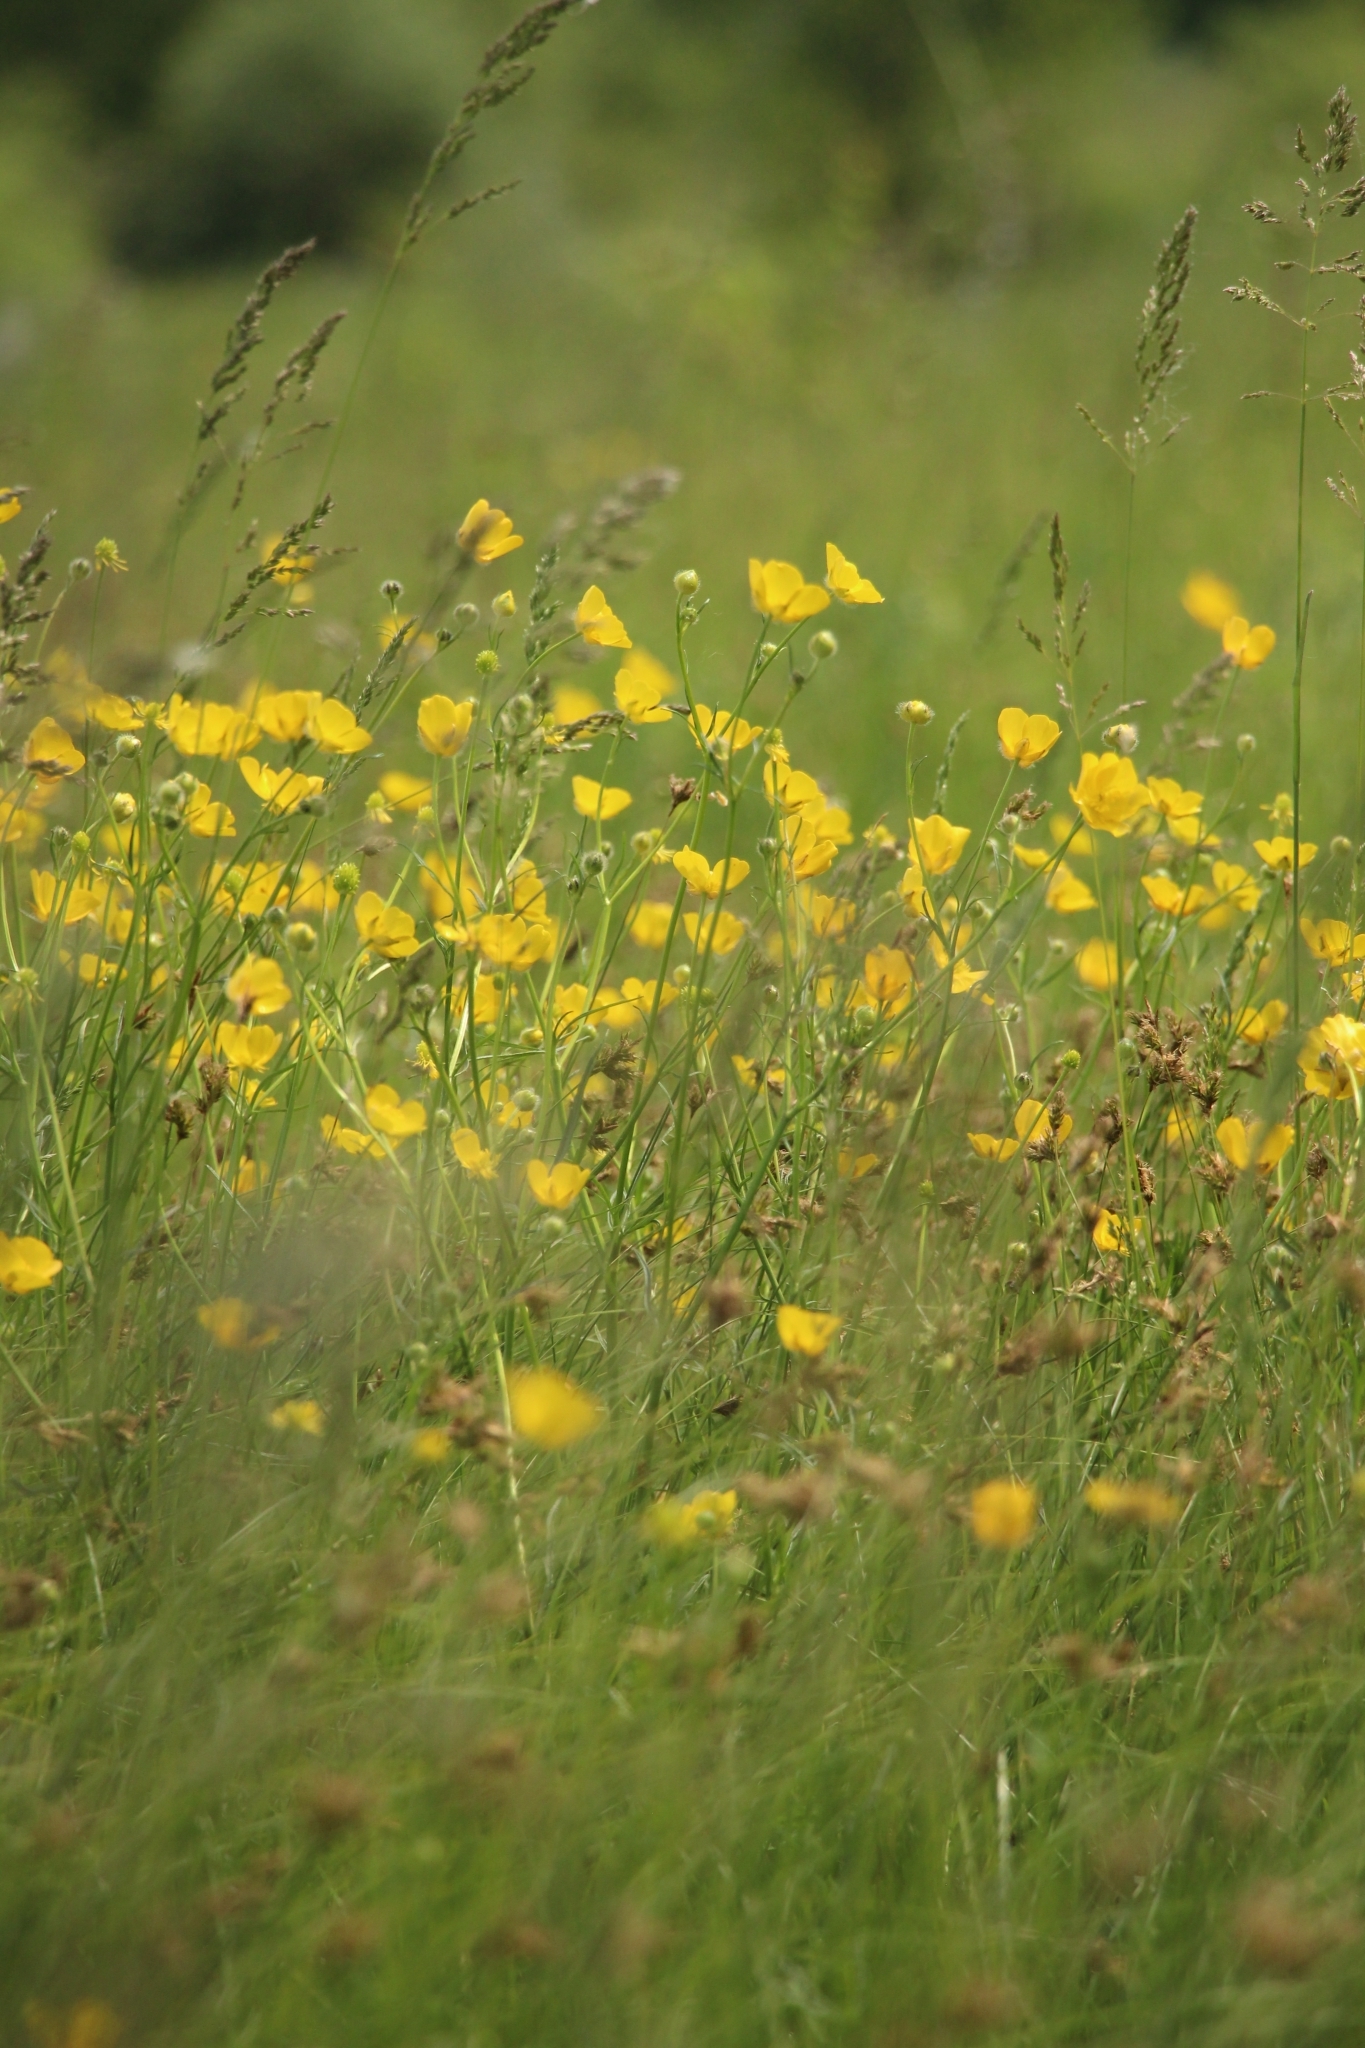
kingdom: Plantae
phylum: Tracheophyta
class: Magnoliopsida
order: Ranunculales
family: Ranunculaceae
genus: Ranunculus
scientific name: Ranunculus polyanthemos
